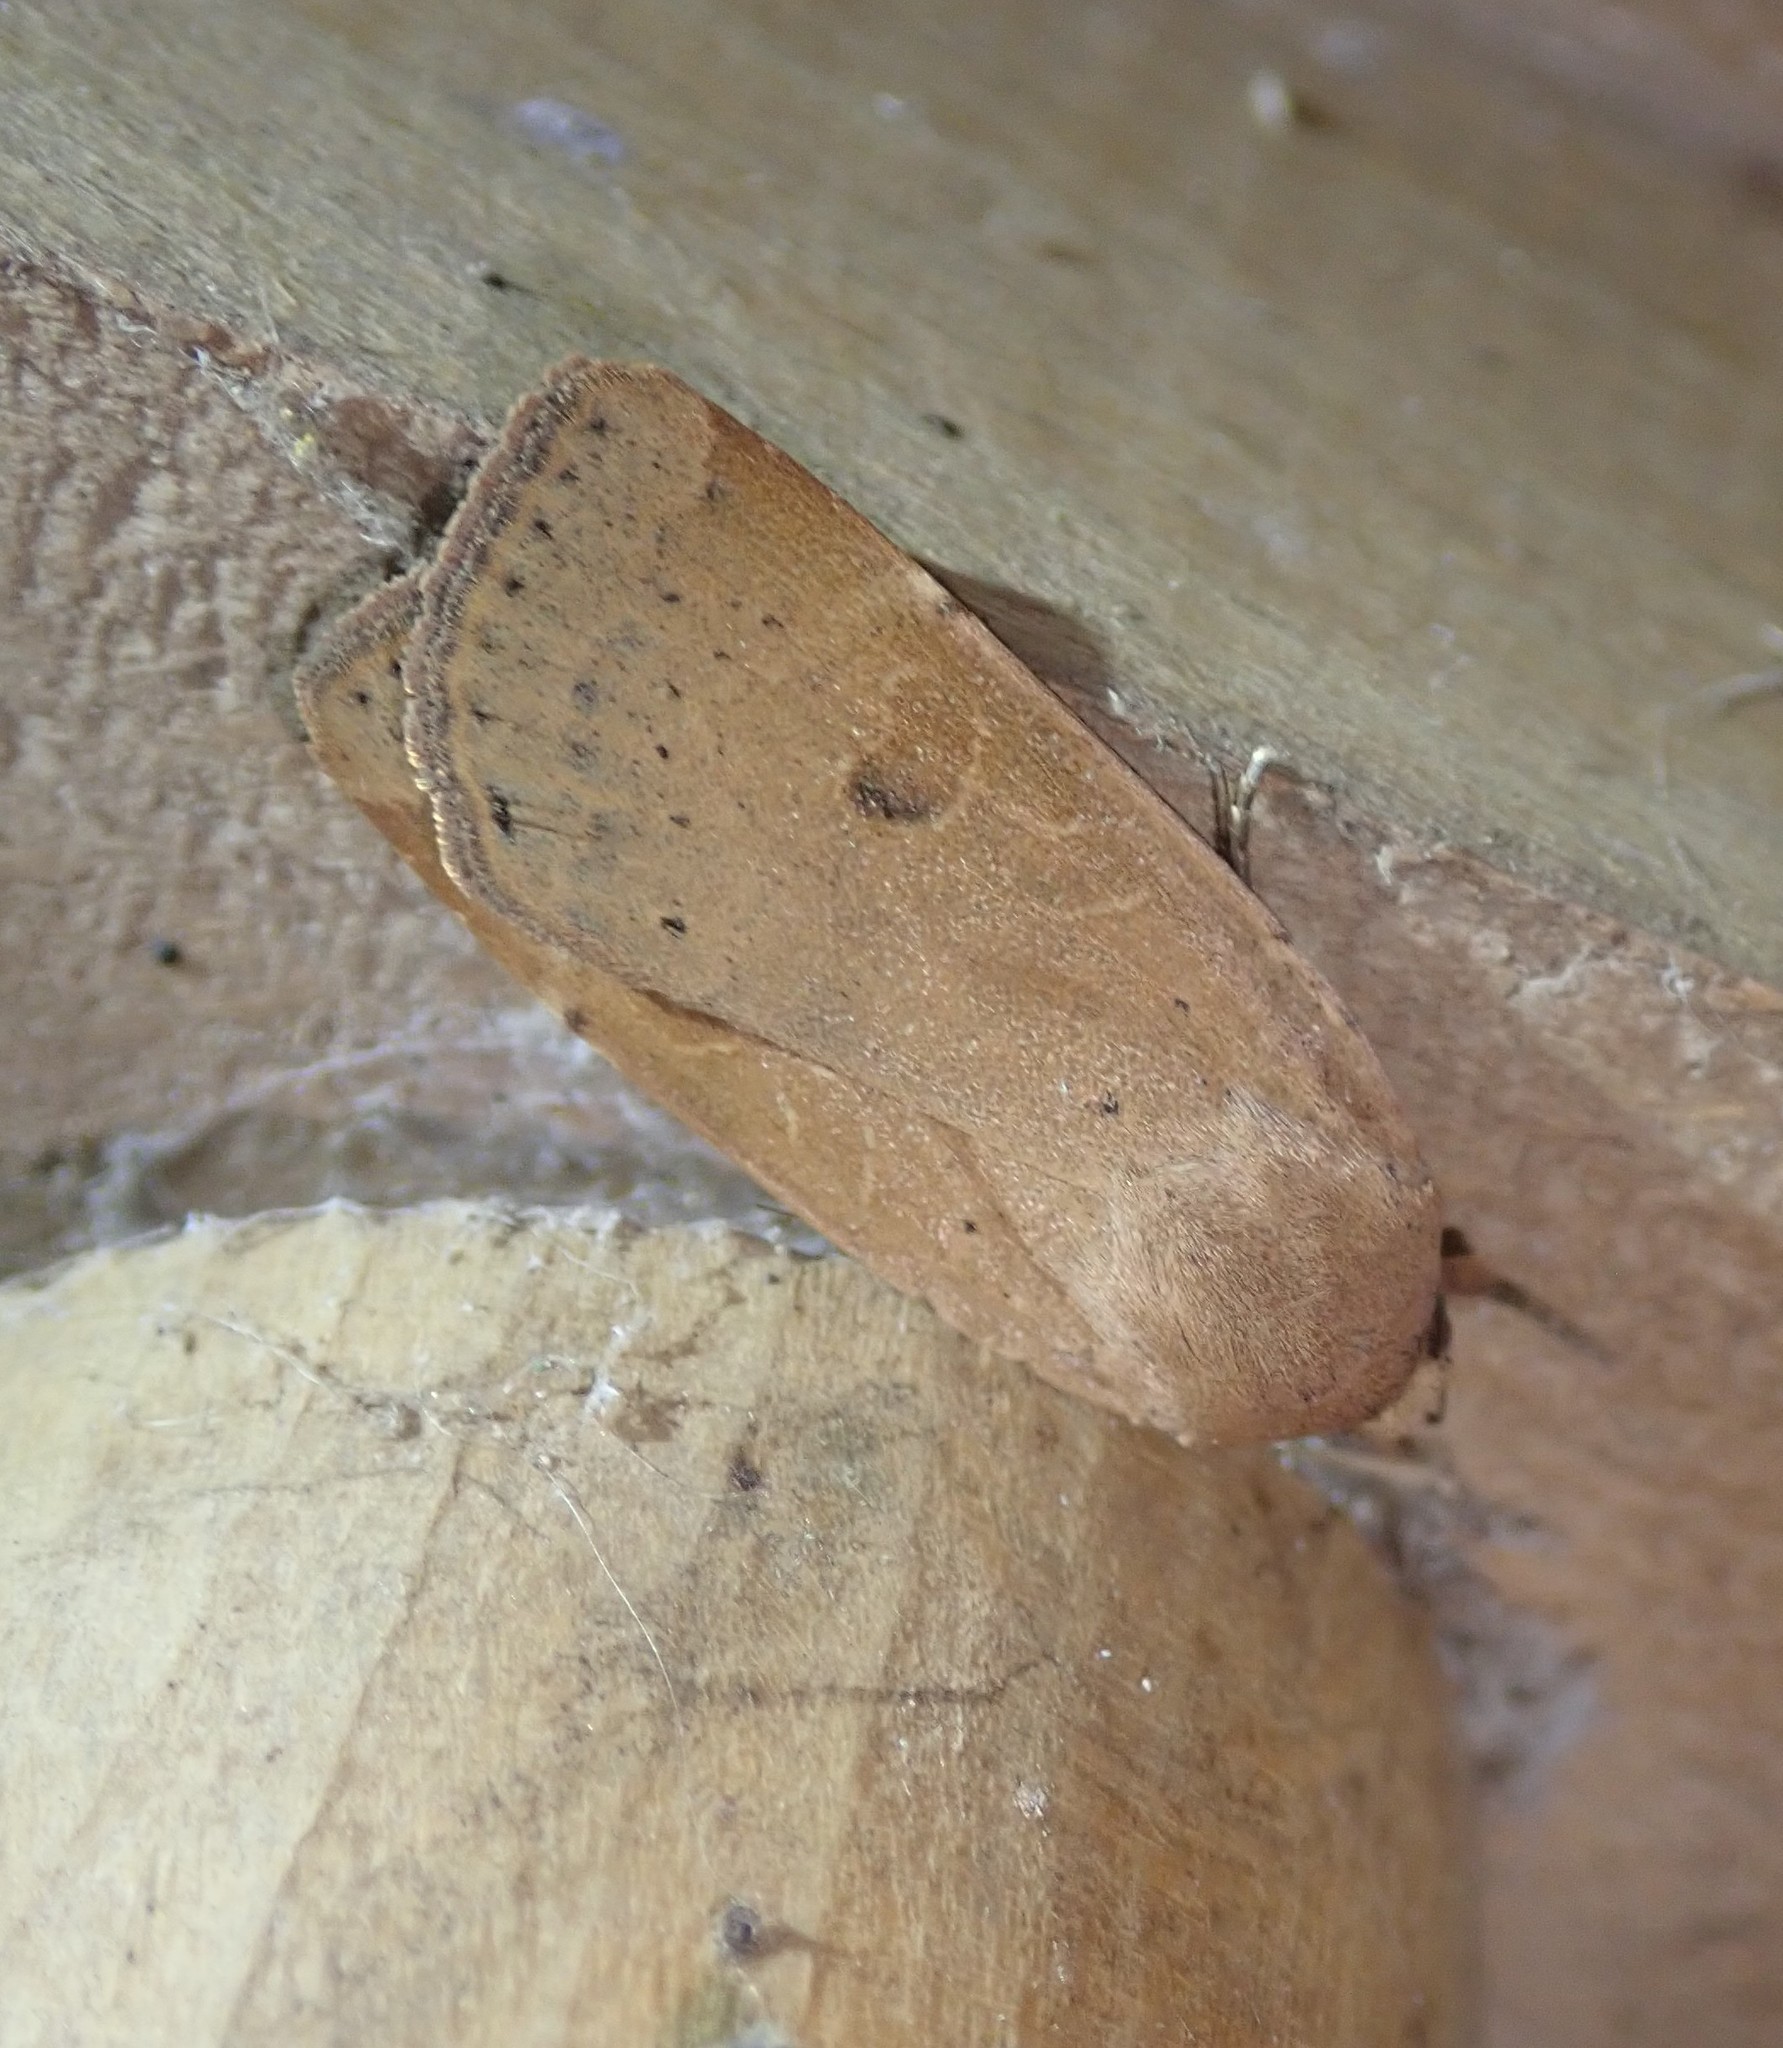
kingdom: Animalia
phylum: Arthropoda
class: Insecta
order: Lepidoptera
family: Noctuidae
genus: Noctua
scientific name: Noctua comes
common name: Lesser yellow underwing
